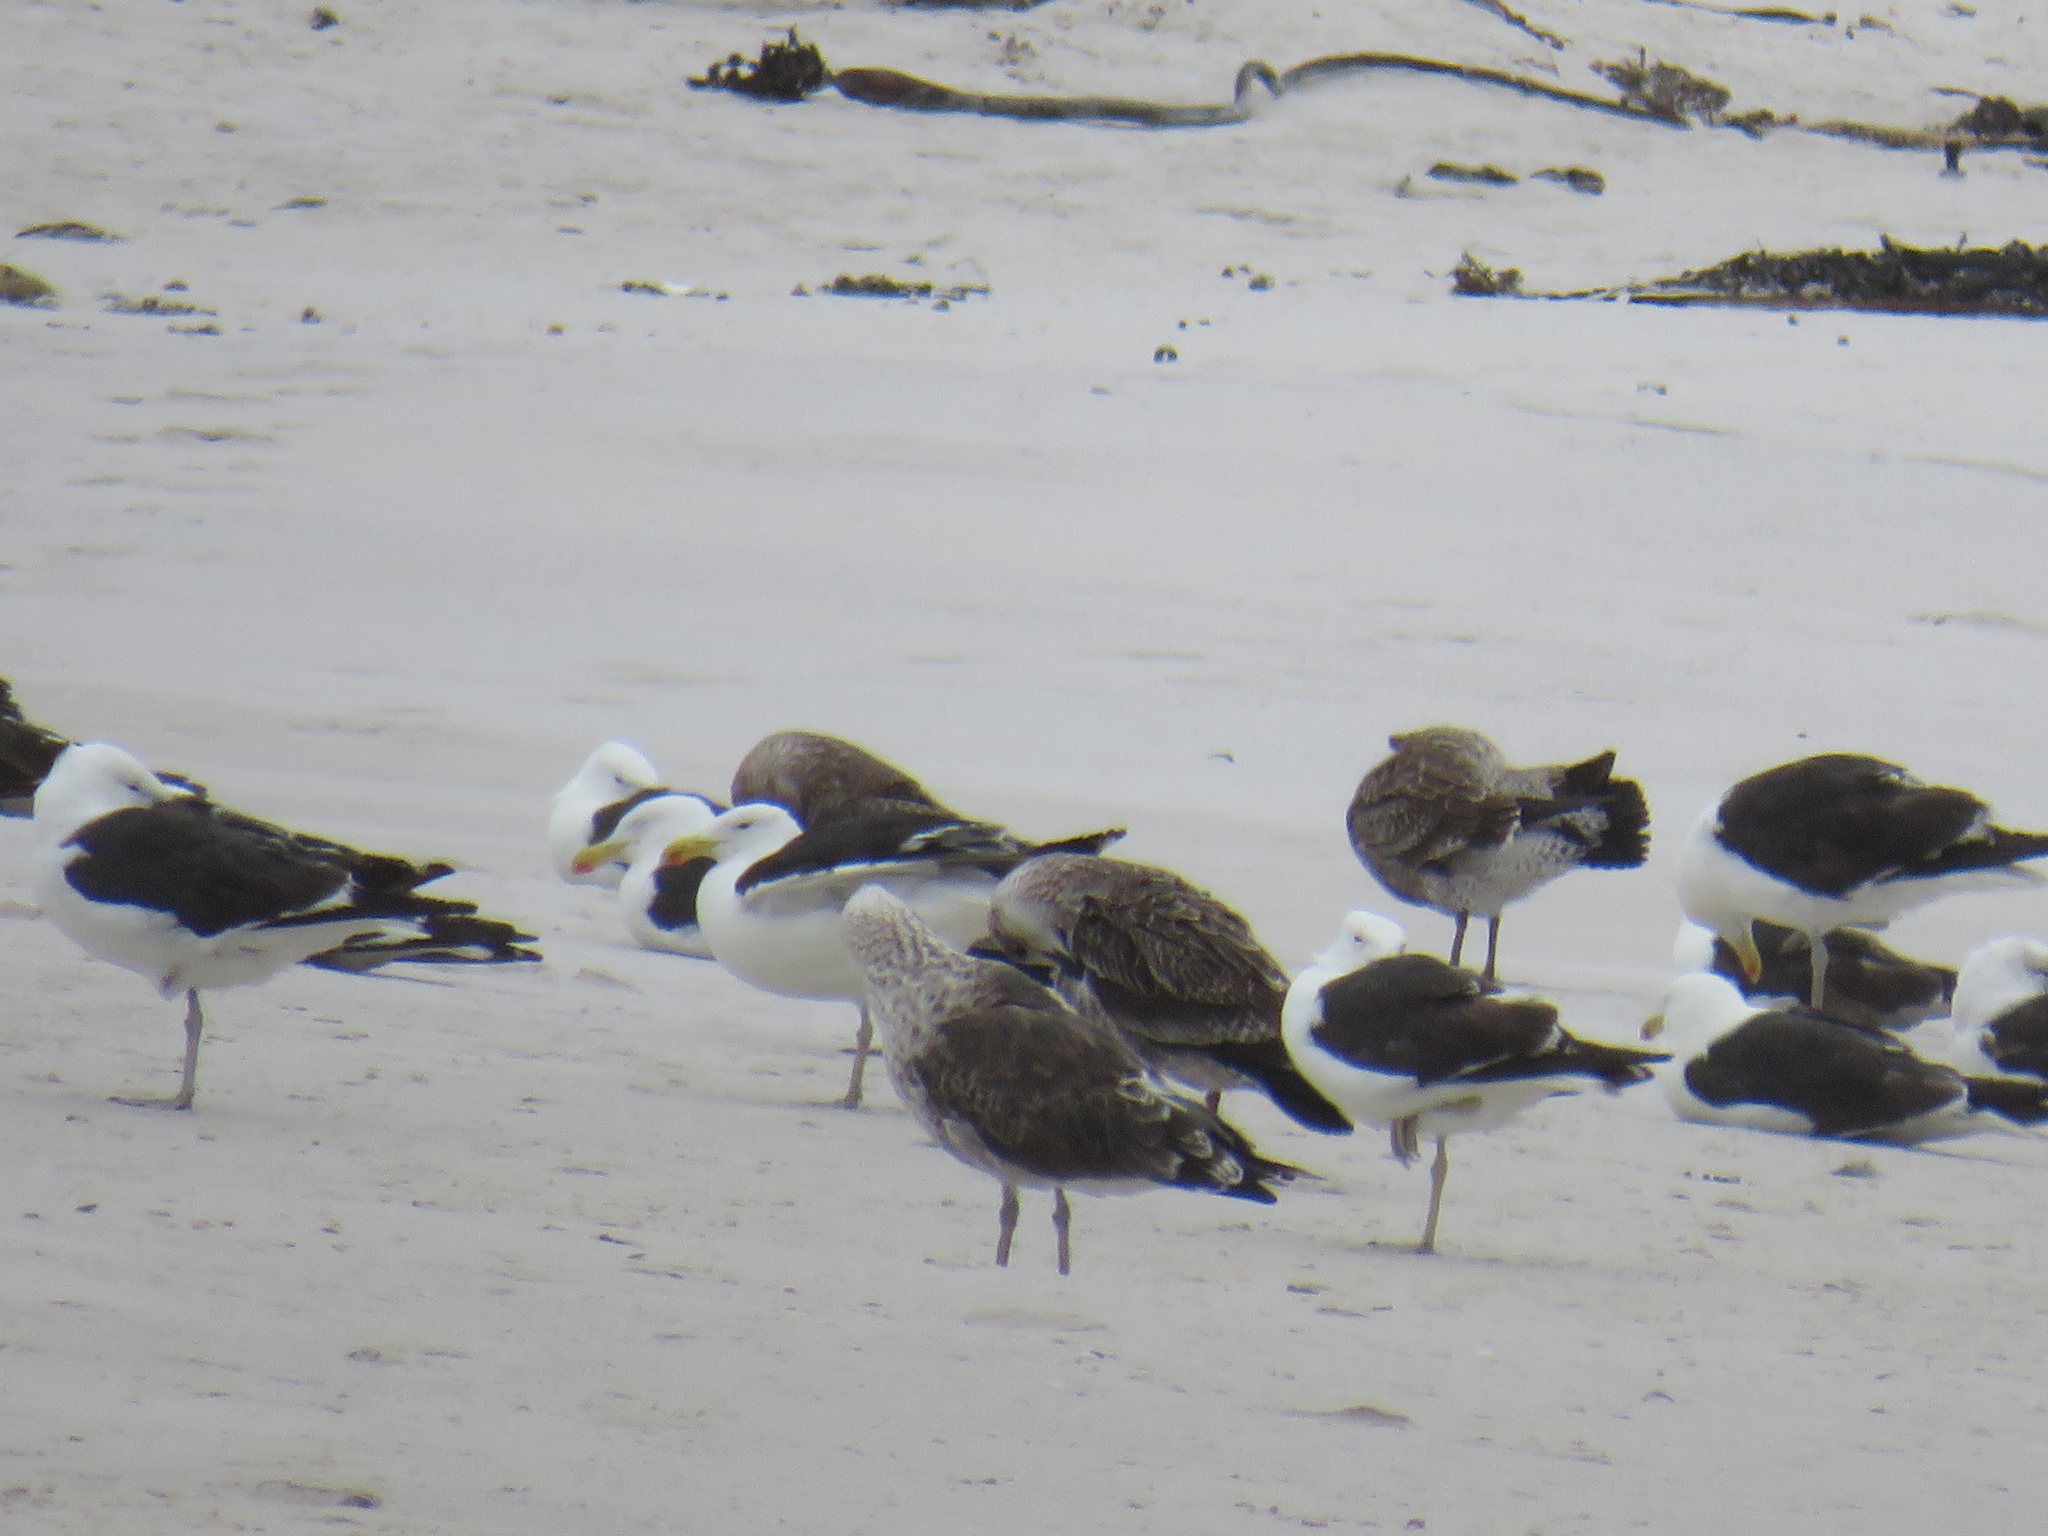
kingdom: Animalia
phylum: Chordata
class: Aves
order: Charadriiformes
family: Laridae
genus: Larus
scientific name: Larus dominicanus
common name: Kelp gull
